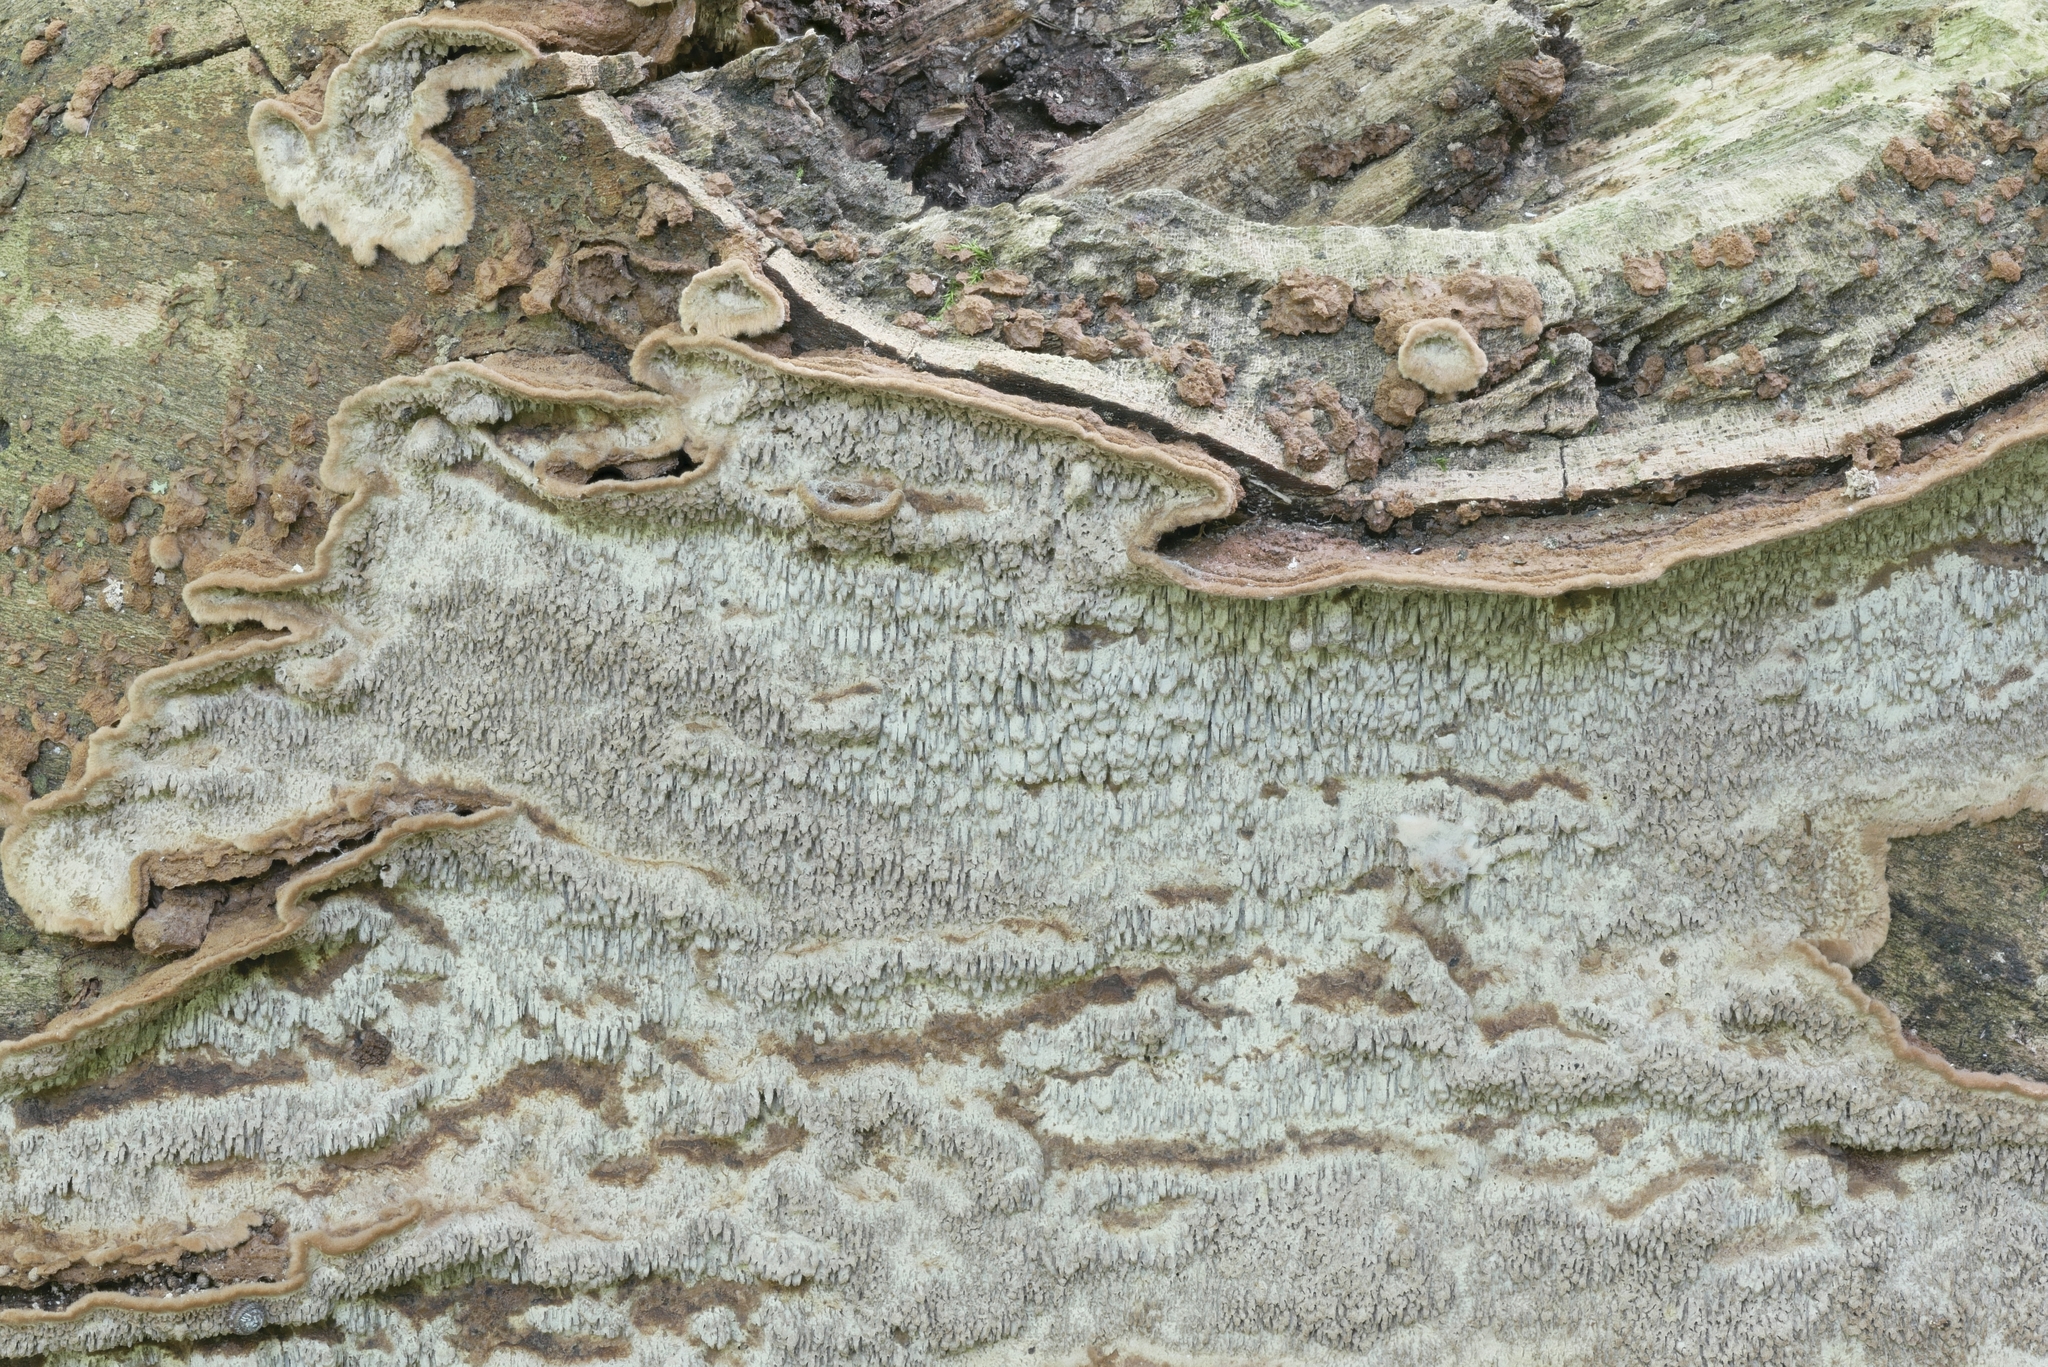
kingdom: Fungi
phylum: Basidiomycota
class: Agaricomycetes
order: Polyporales
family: Polyporaceae
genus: Dentocorticium
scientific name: Dentocorticium portoricense
